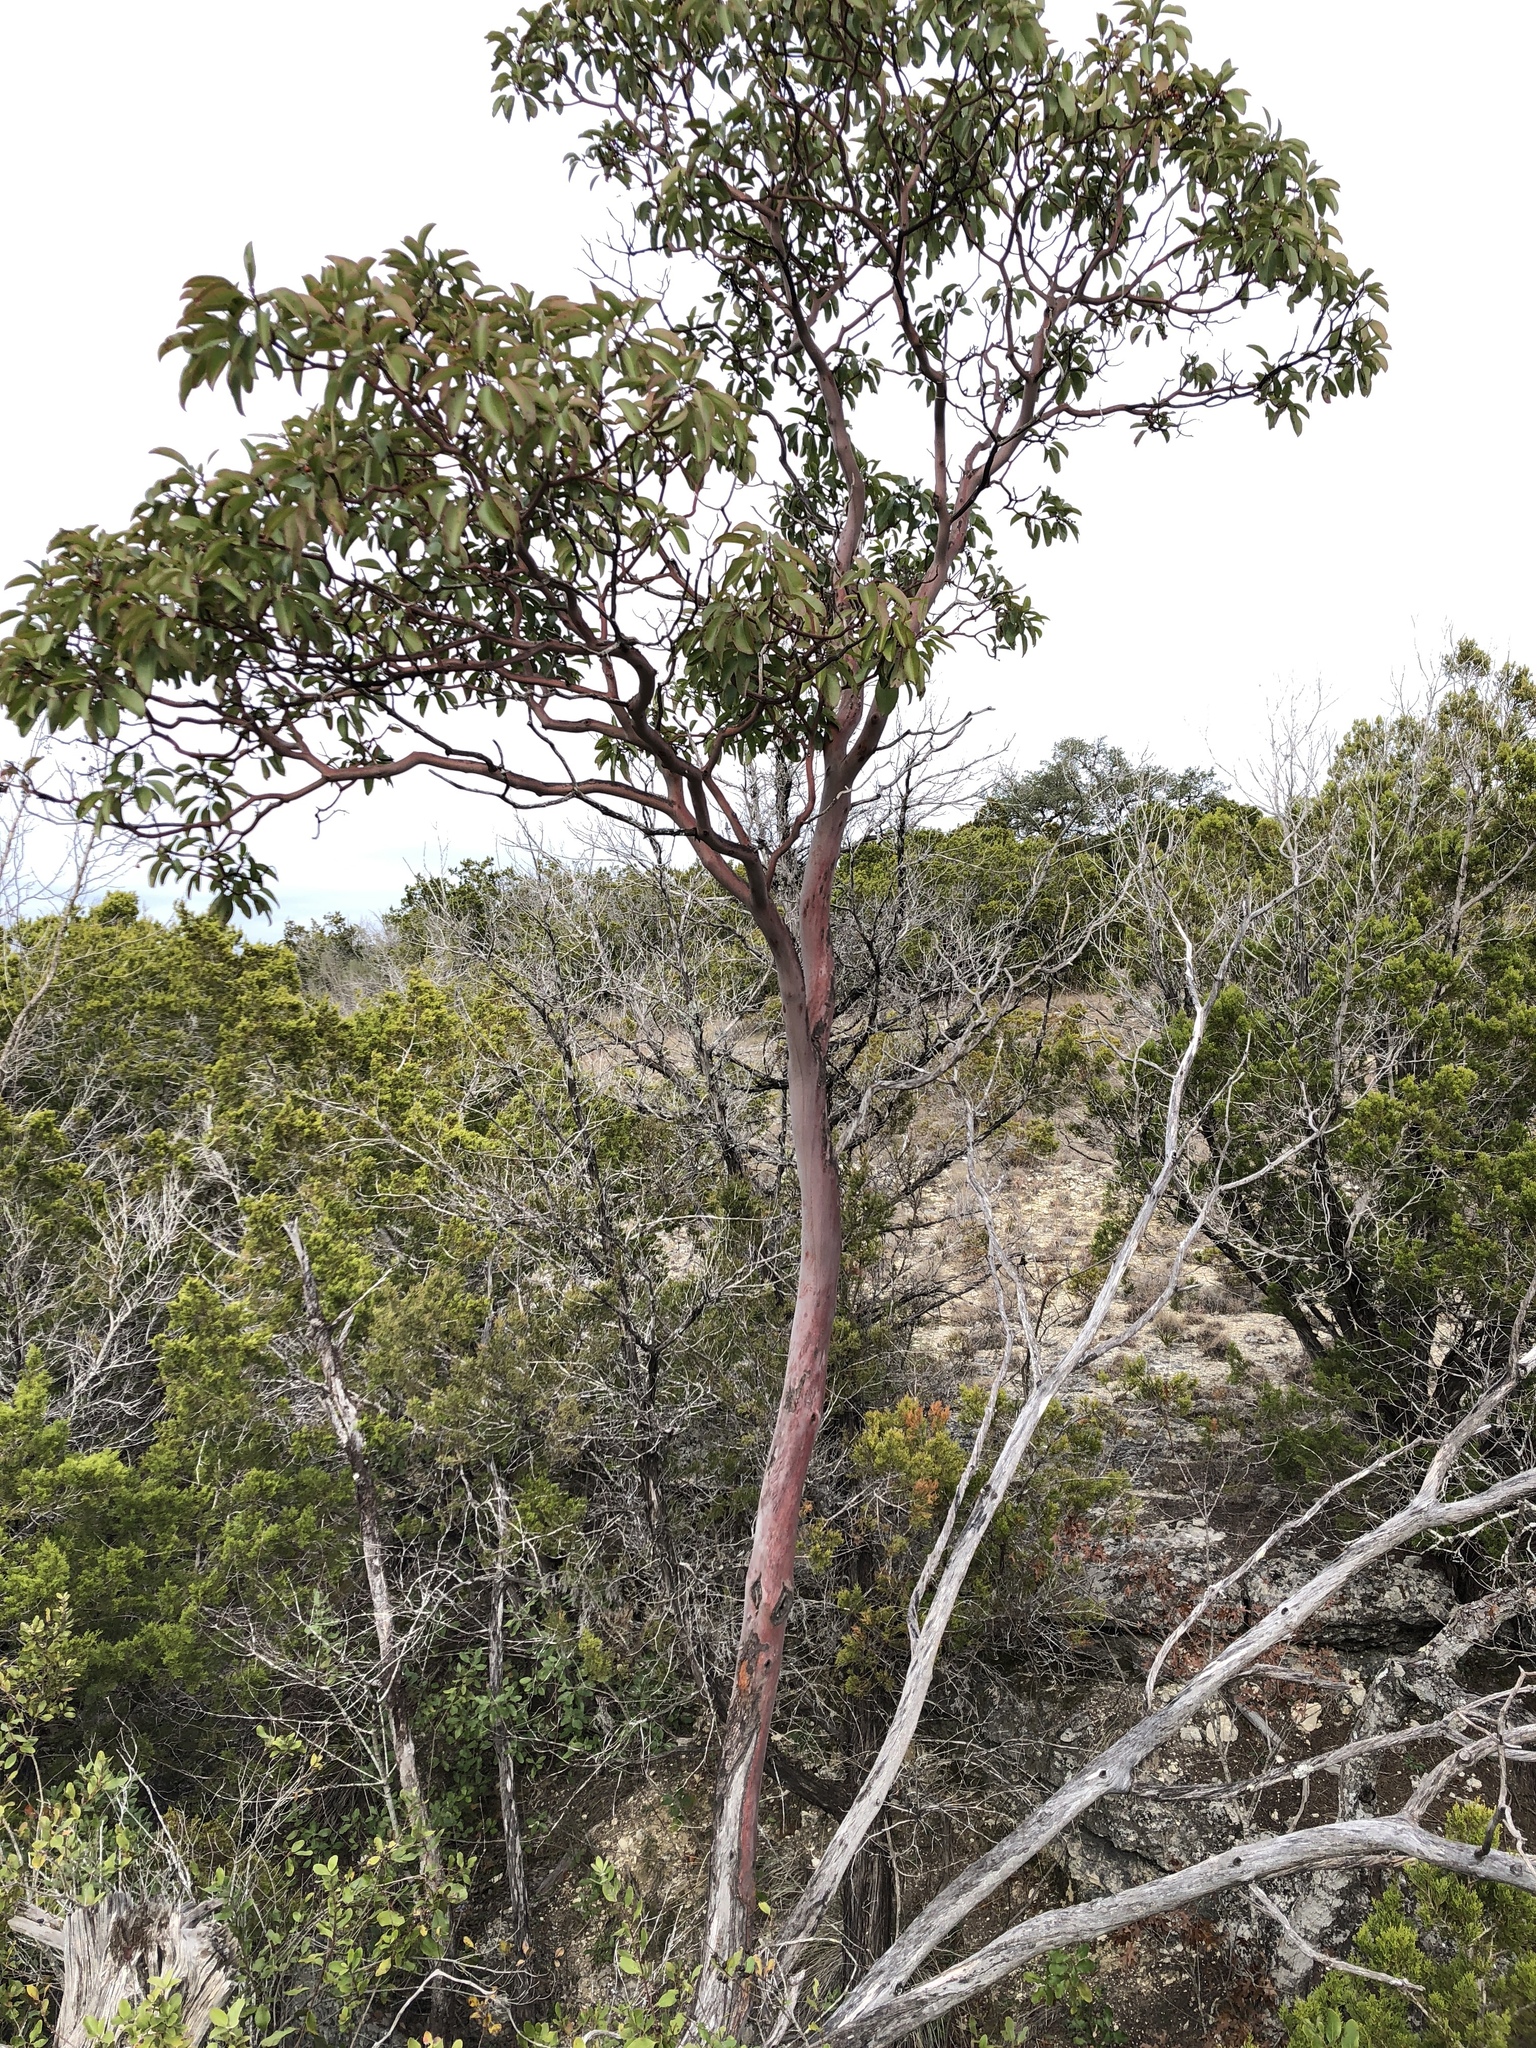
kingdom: Plantae
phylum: Tracheophyta
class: Magnoliopsida
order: Ericales
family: Ericaceae
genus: Arbutus
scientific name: Arbutus xalapensis
